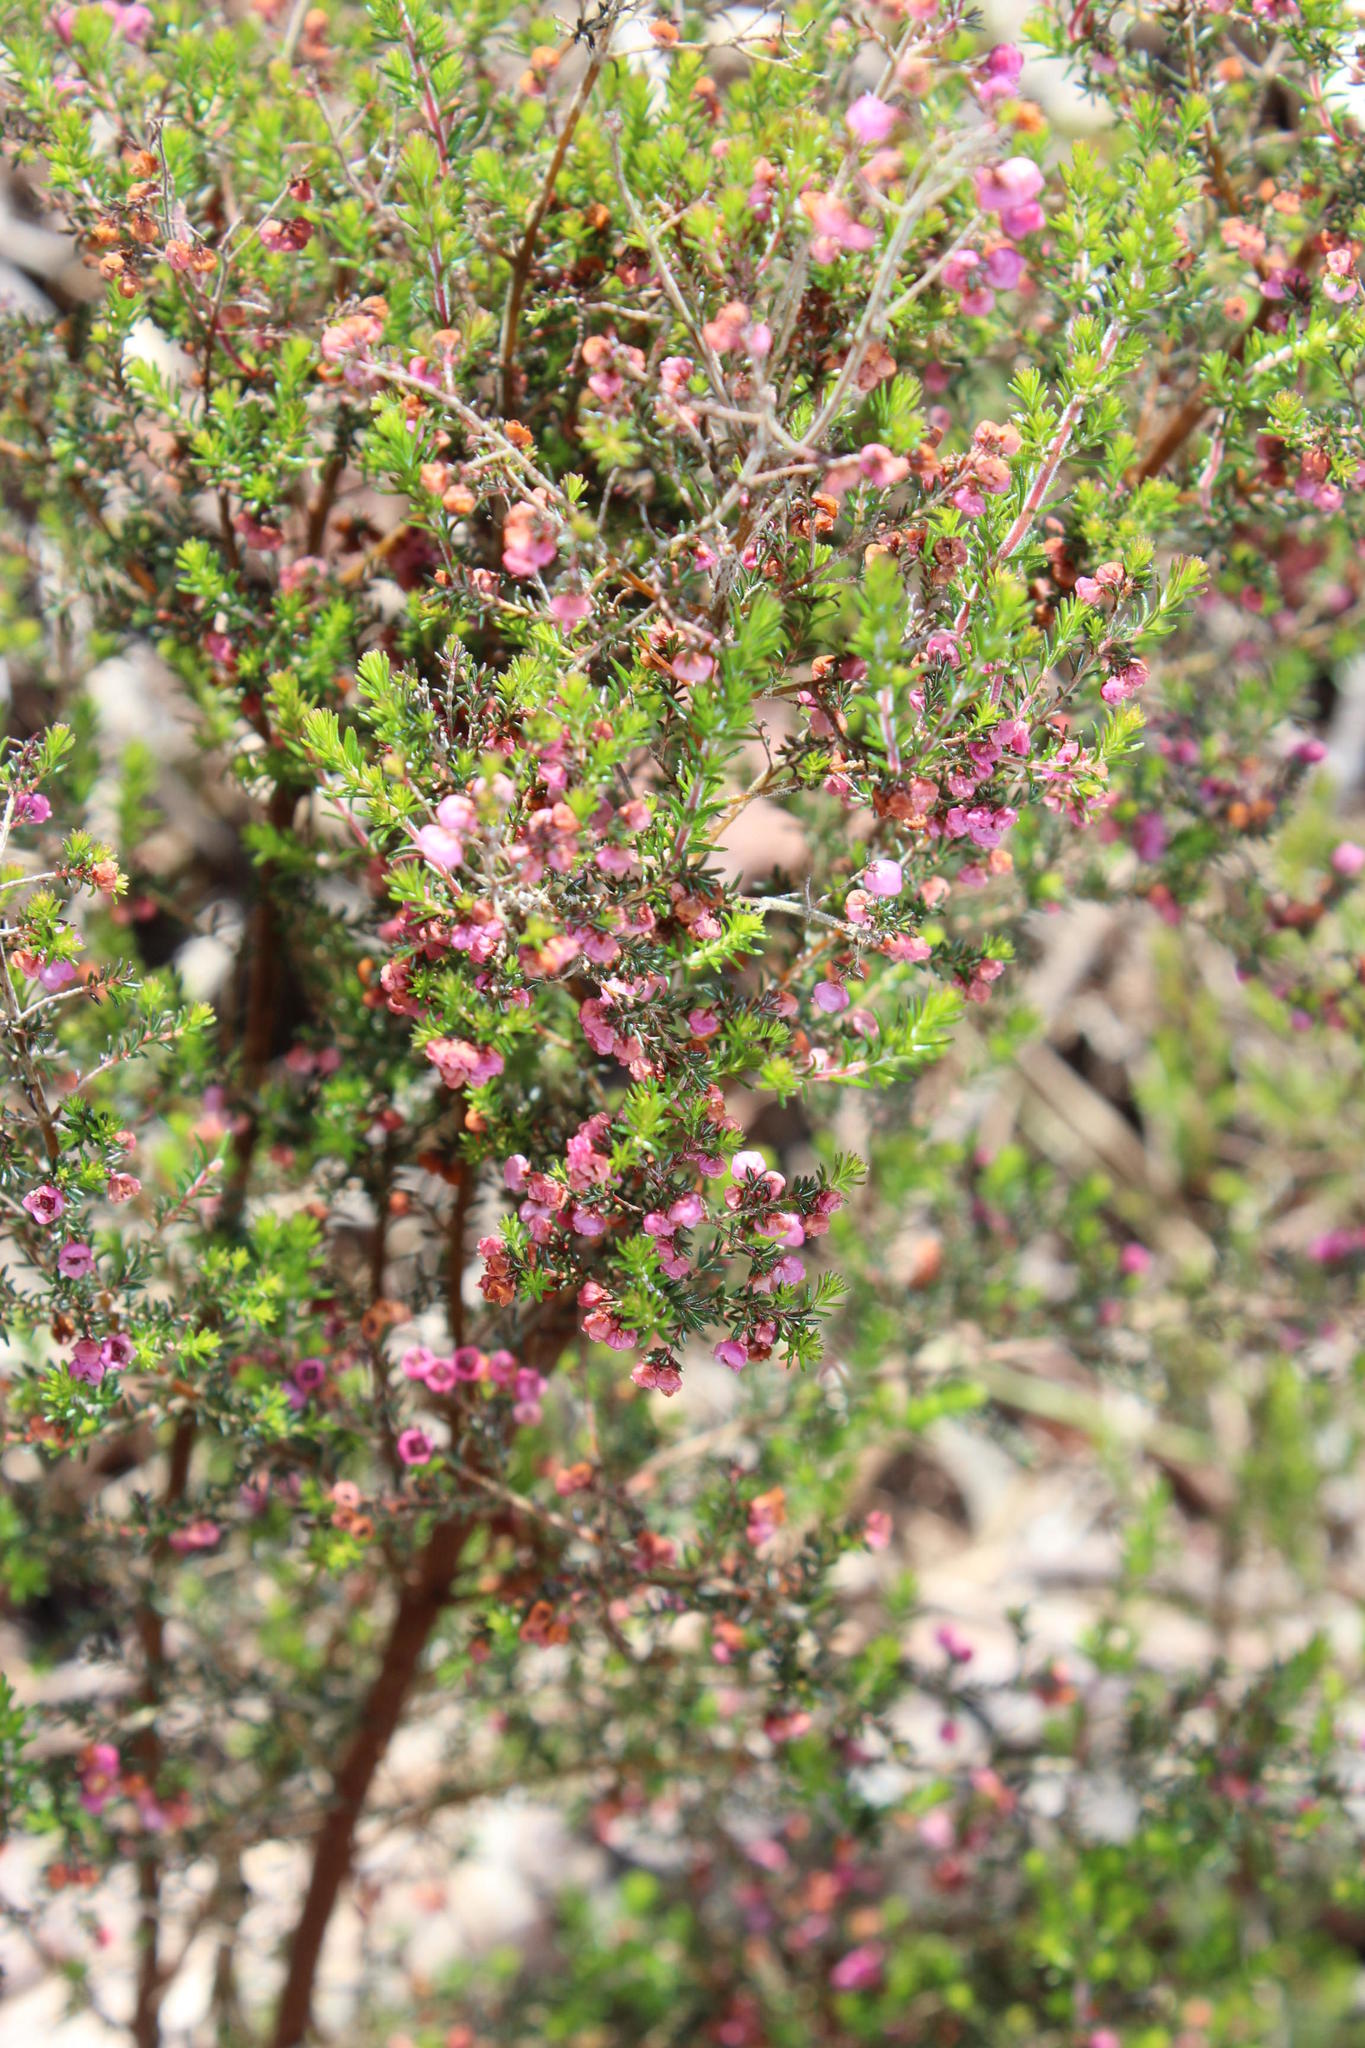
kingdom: Plantae
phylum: Tracheophyta
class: Magnoliopsida
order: Ericales
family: Ericaceae
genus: Erica
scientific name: Erica quadrangularis
